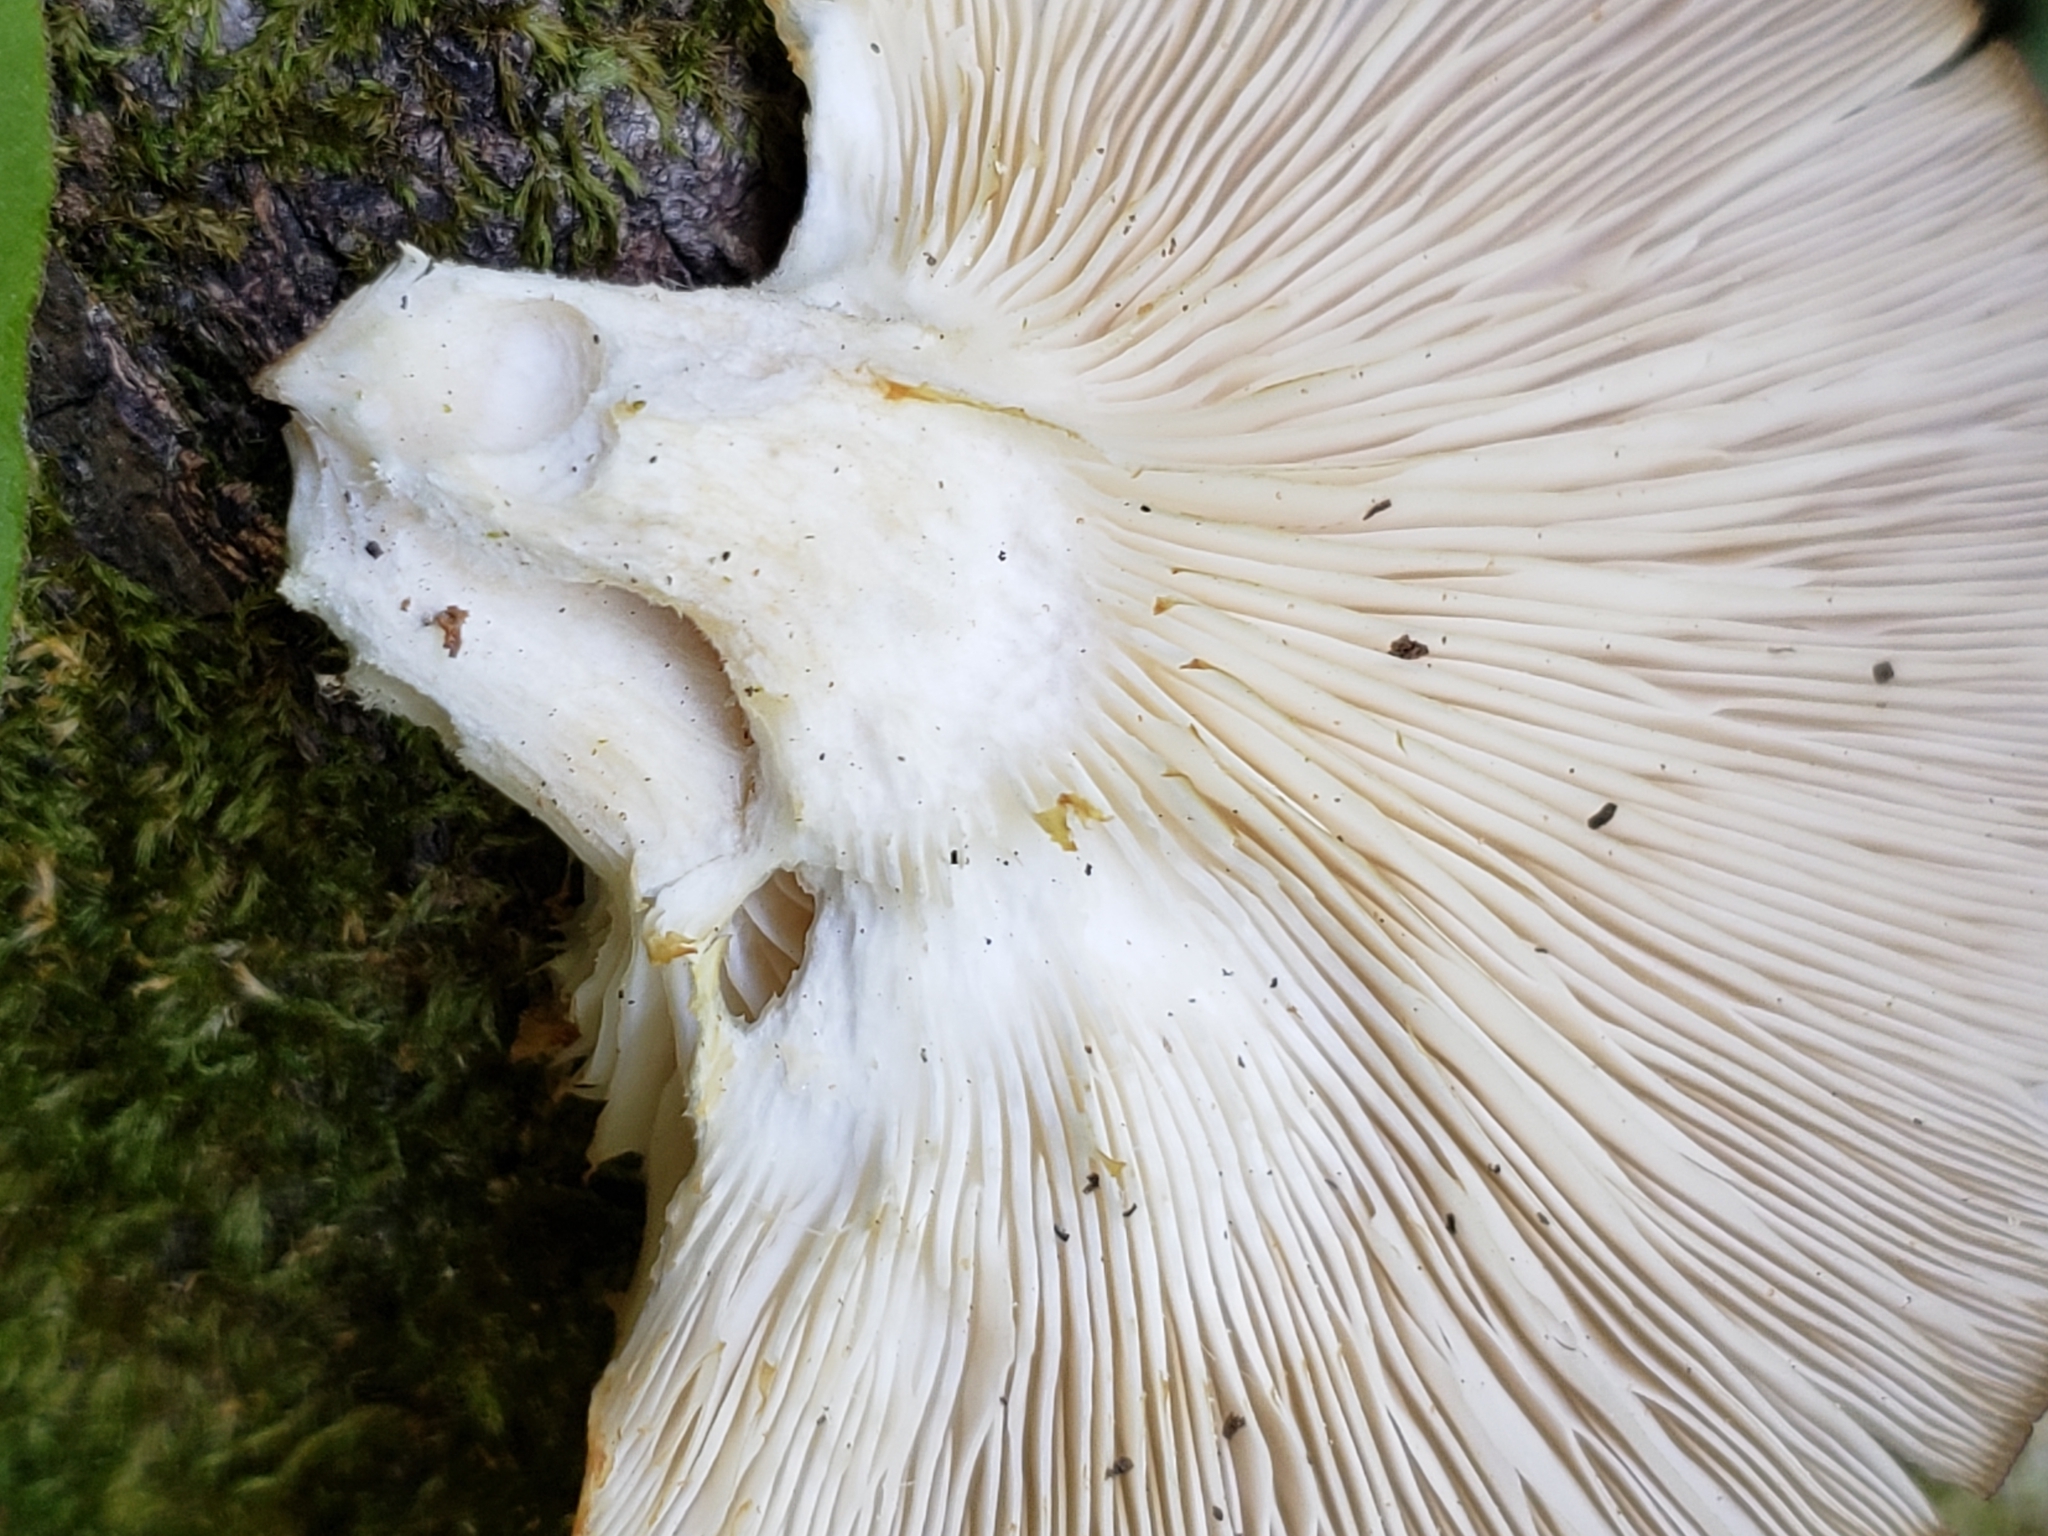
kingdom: Fungi
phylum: Basidiomycota
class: Agaricomycetes
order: Agaricales
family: Pleurotaceae
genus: Pleurotus
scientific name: Pleurotus pulmonarius
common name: Pale oyster
